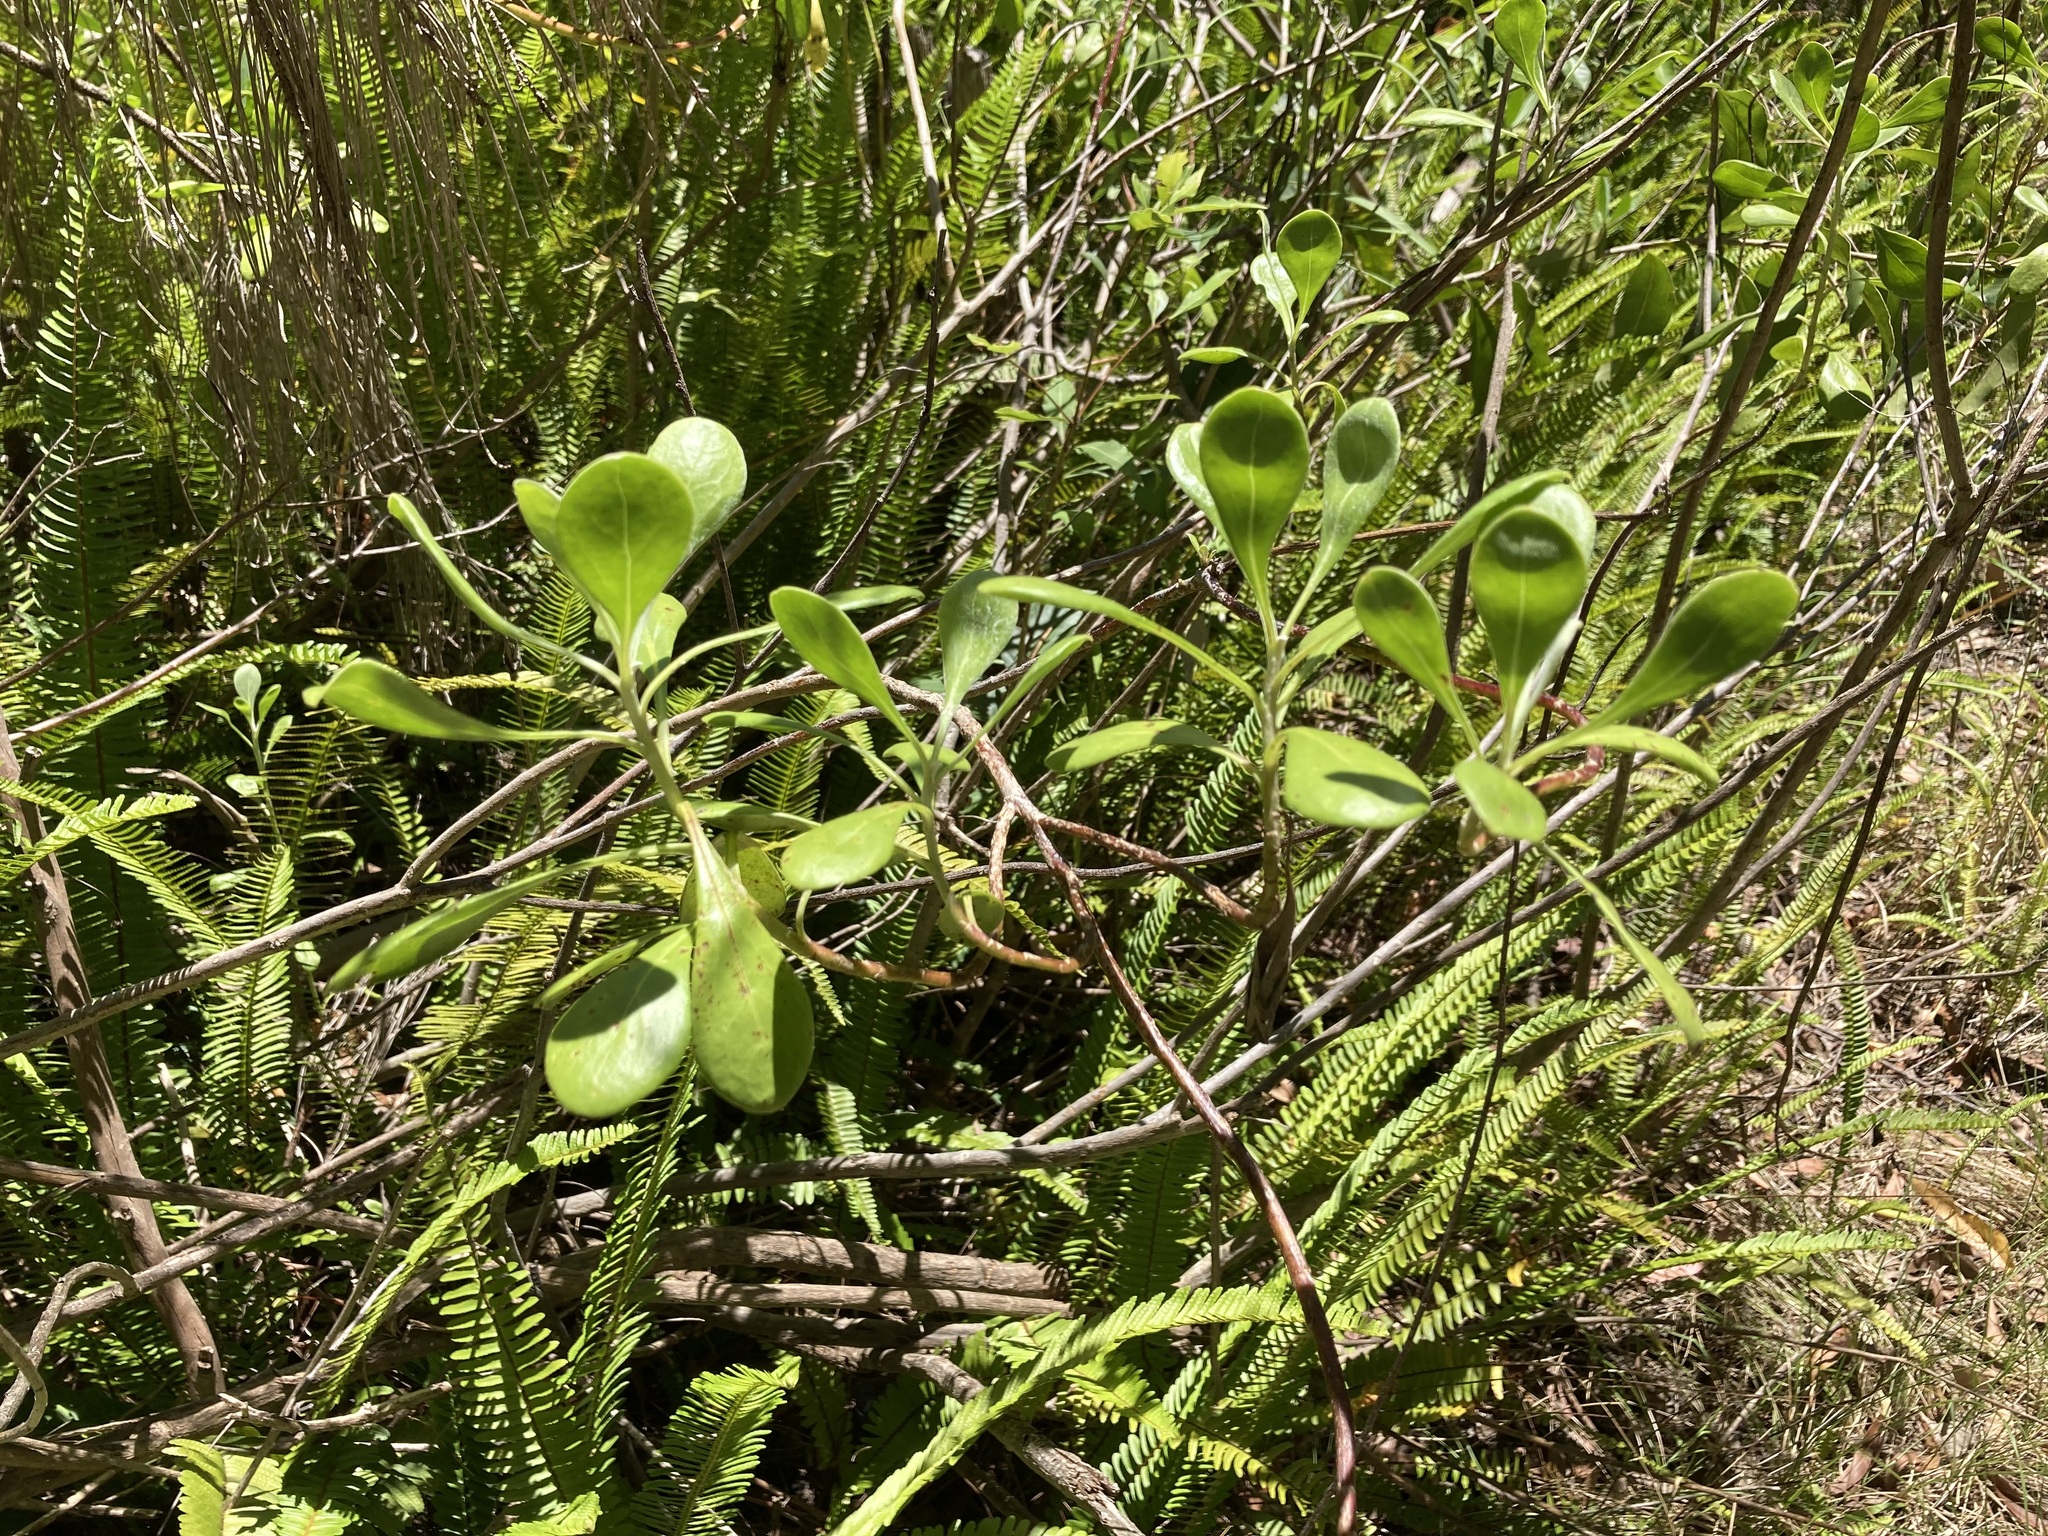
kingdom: Plantae
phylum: Tracheophyta
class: Magnoliopsida
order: Asterales
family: Asteraceae
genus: Osteospermum
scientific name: Osteospermum moniliferum
